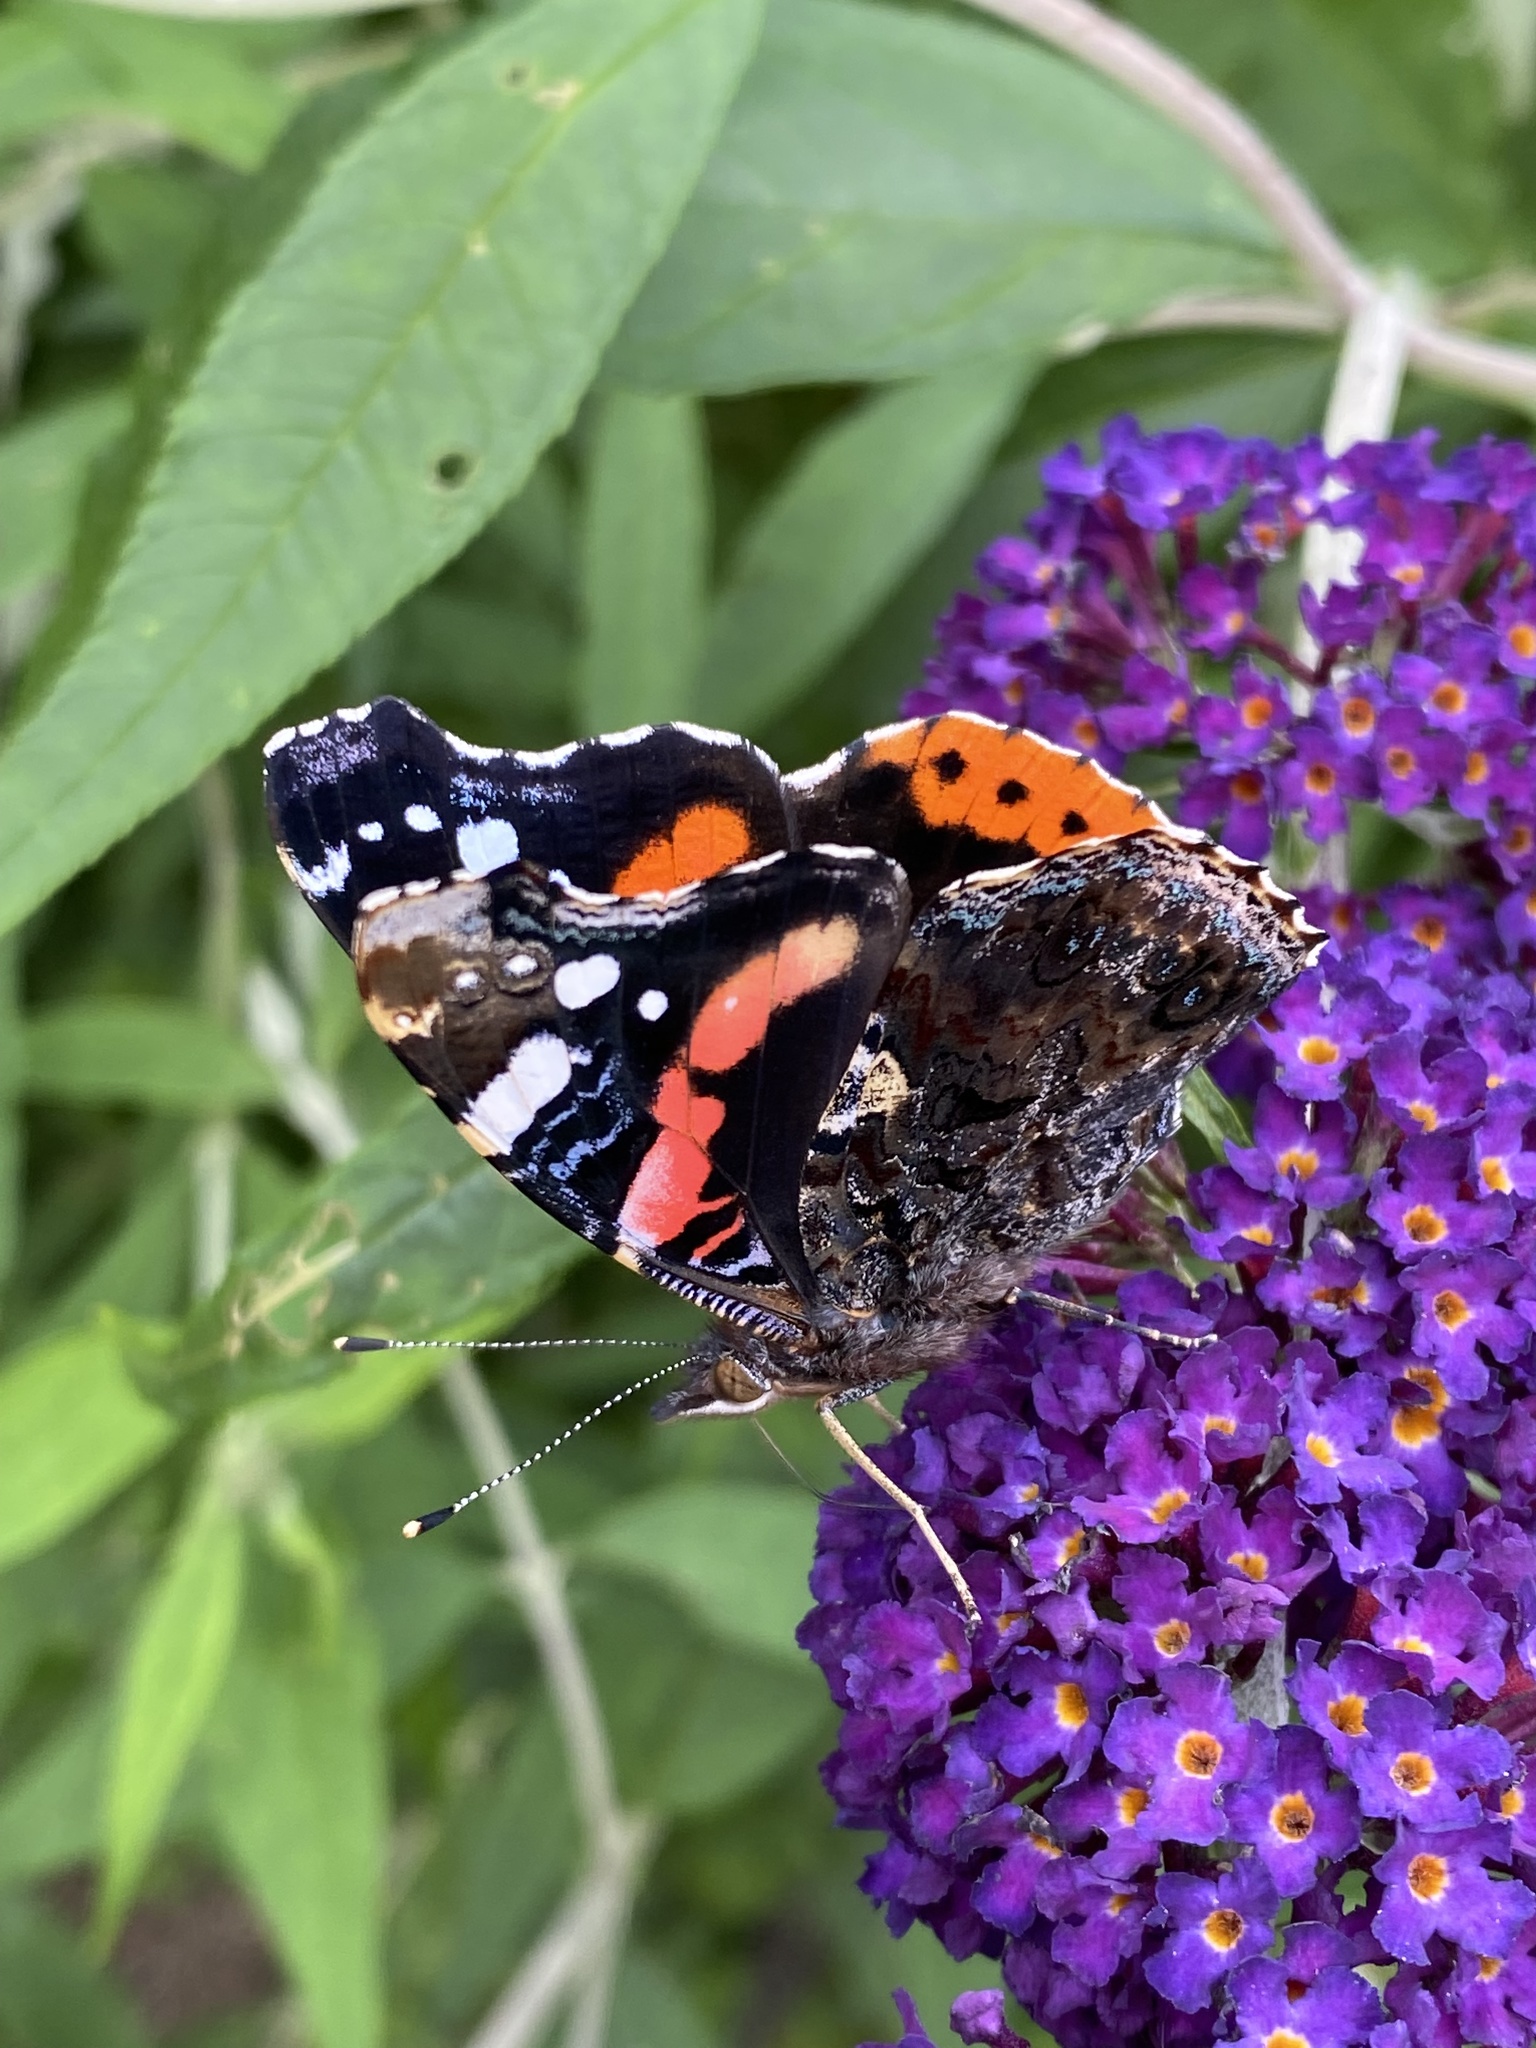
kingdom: Animalia
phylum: Arthropoda
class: Insecta
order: Lepidoptera
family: Nymphalidae
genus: Vanessa
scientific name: Vanessa atalanta
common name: Red admiral
